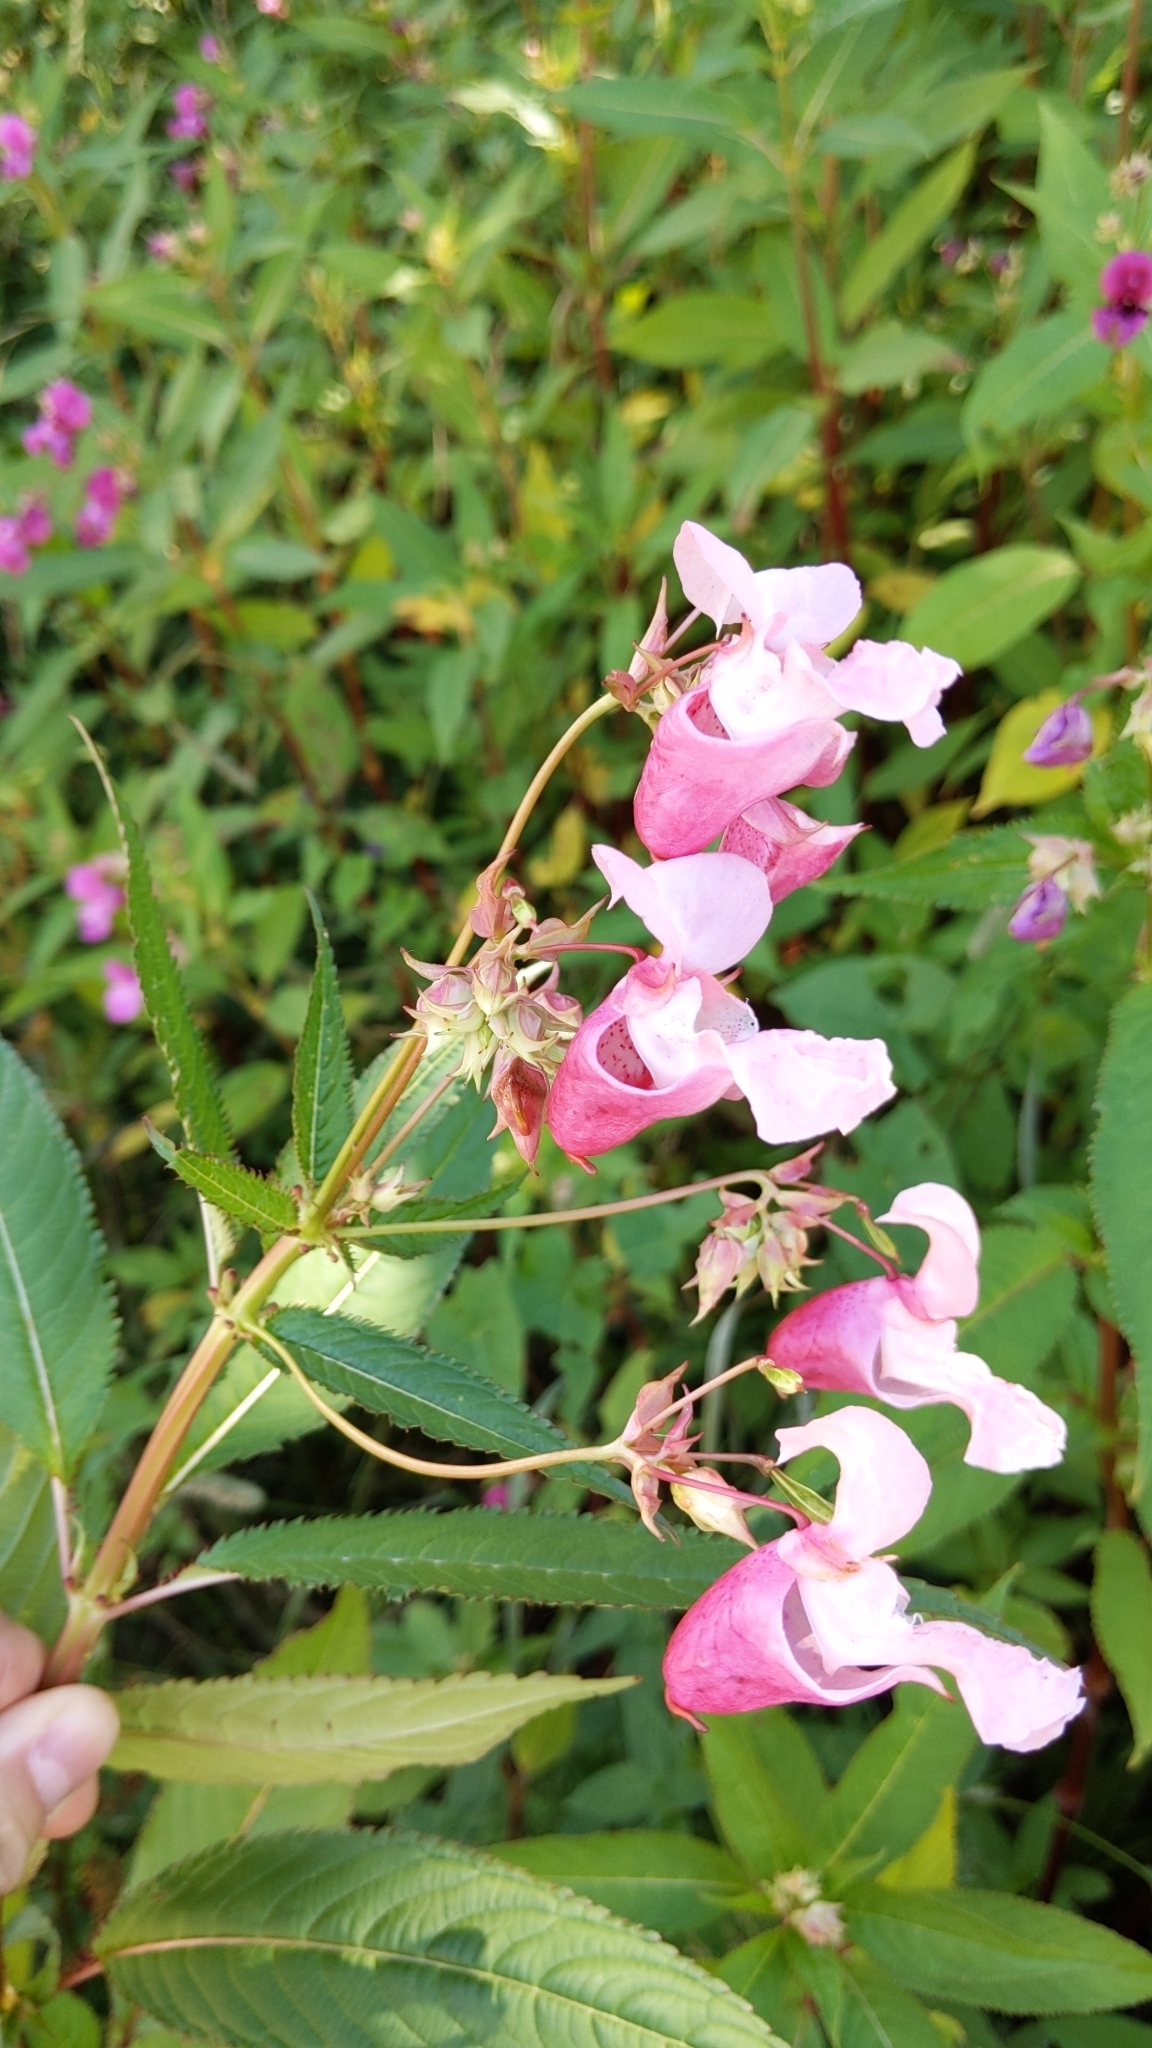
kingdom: Plantae
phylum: Tracheophyta
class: Magnoliopsida
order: Ericales
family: Balsaminaceae
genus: Impatiens
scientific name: Impatiens glandulifera
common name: Himalayan balsam
